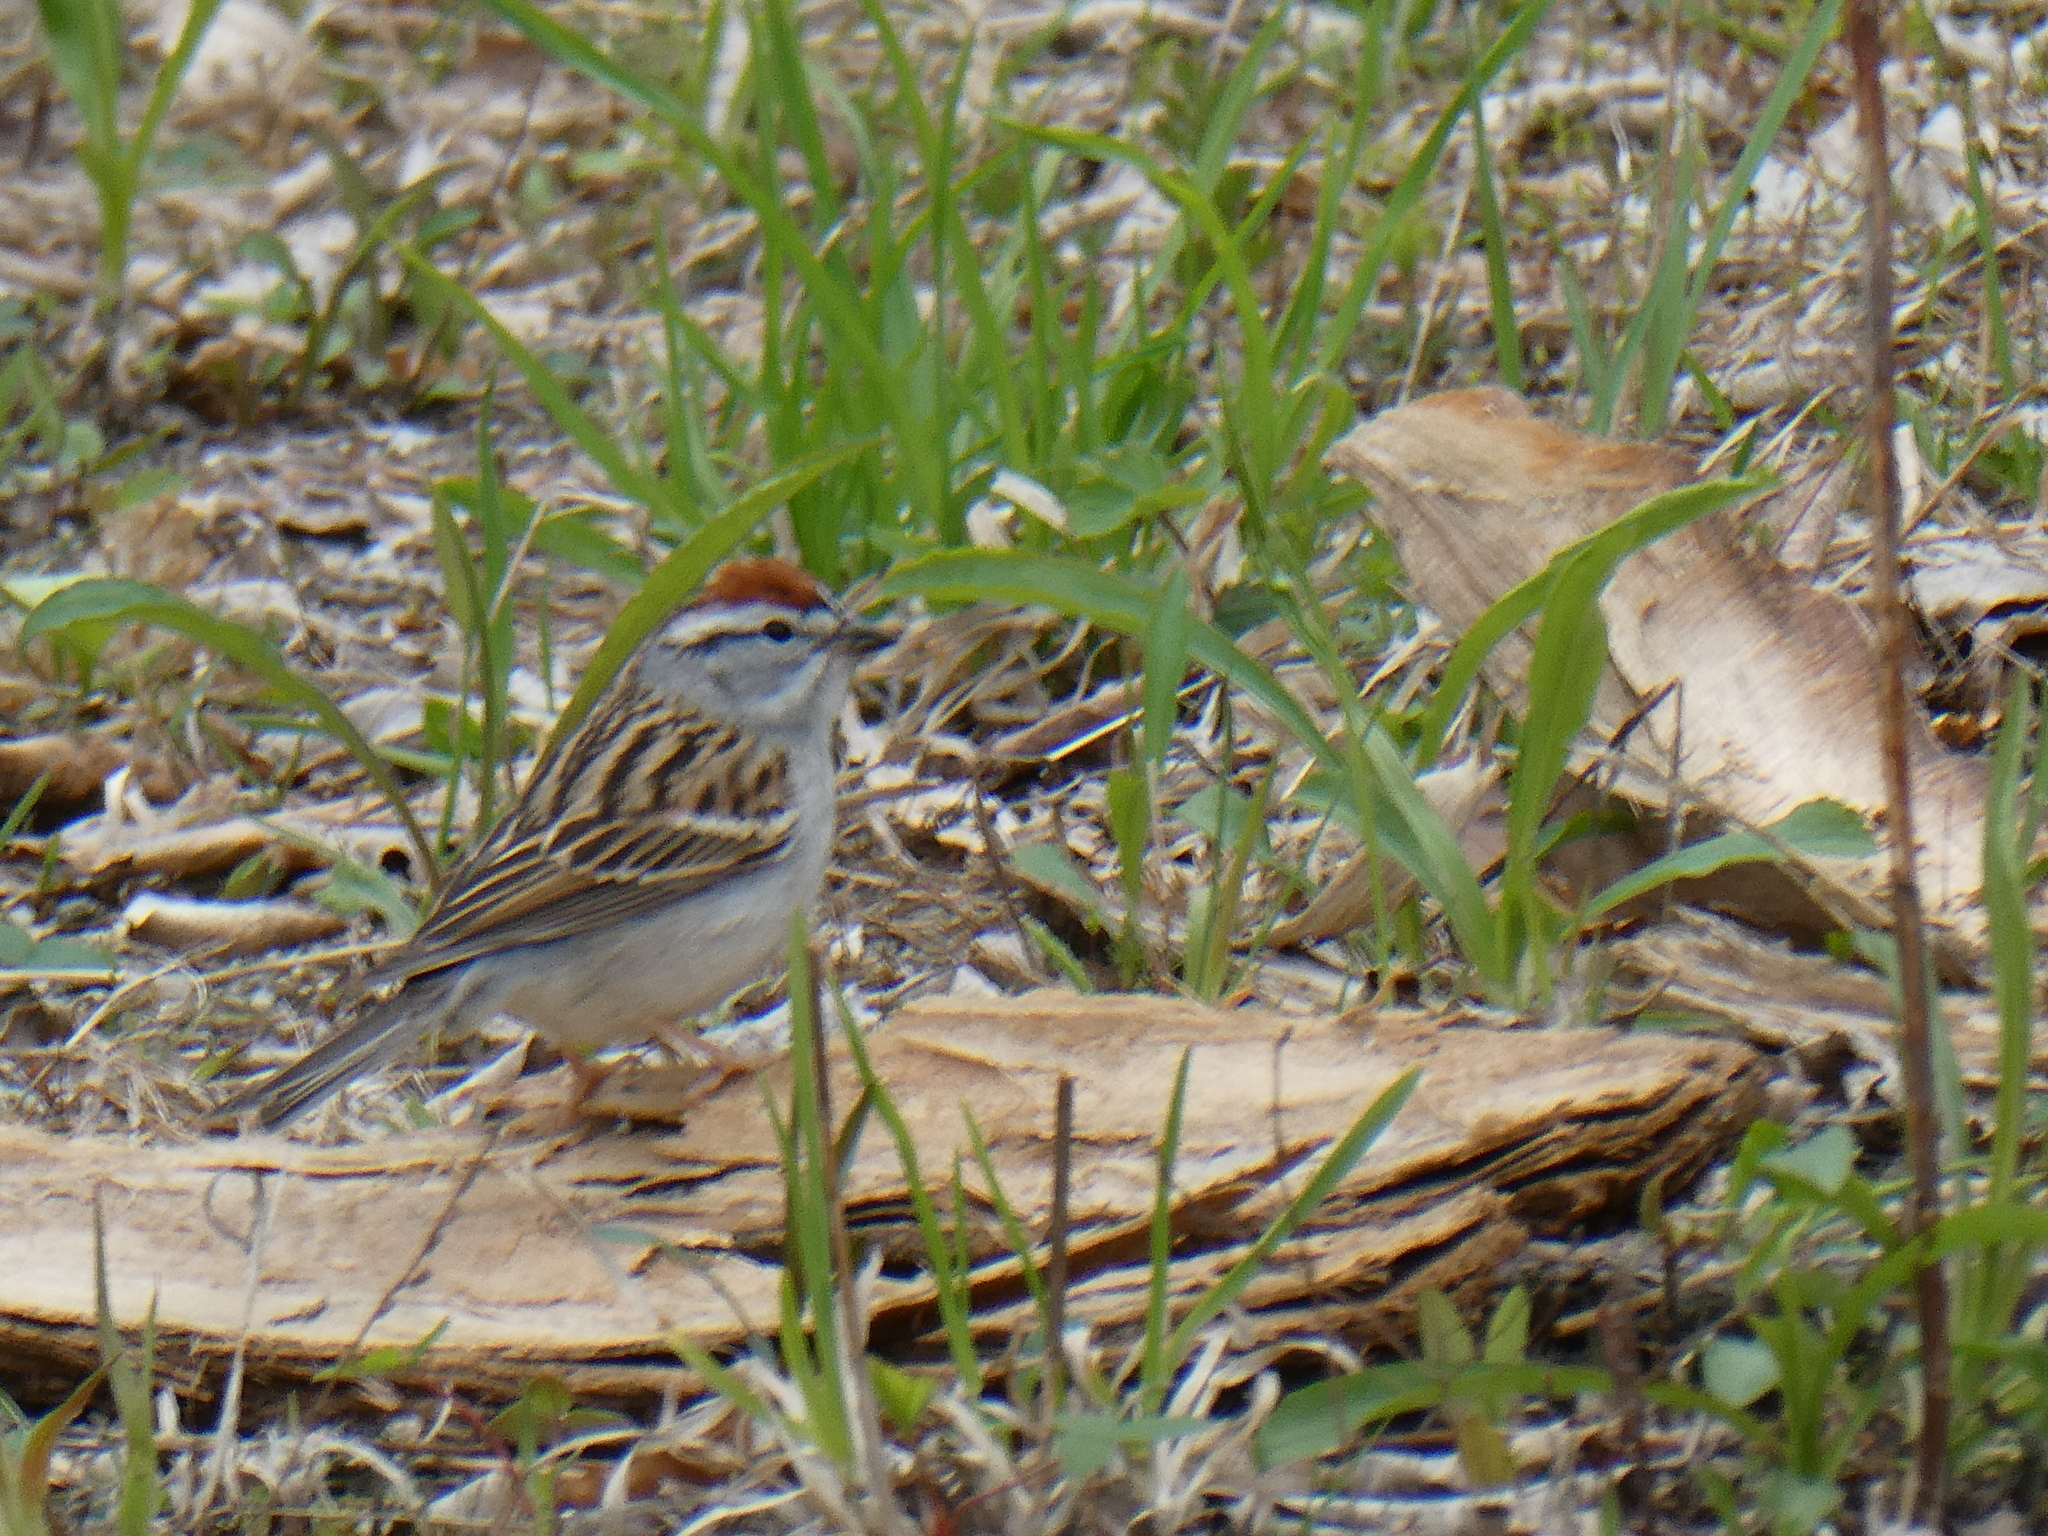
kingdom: Animalia
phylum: Chordata
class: Aves
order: Passeriformes
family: Passerellidae
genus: Spizella
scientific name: Spizella passerina
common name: Chipping sparrow
